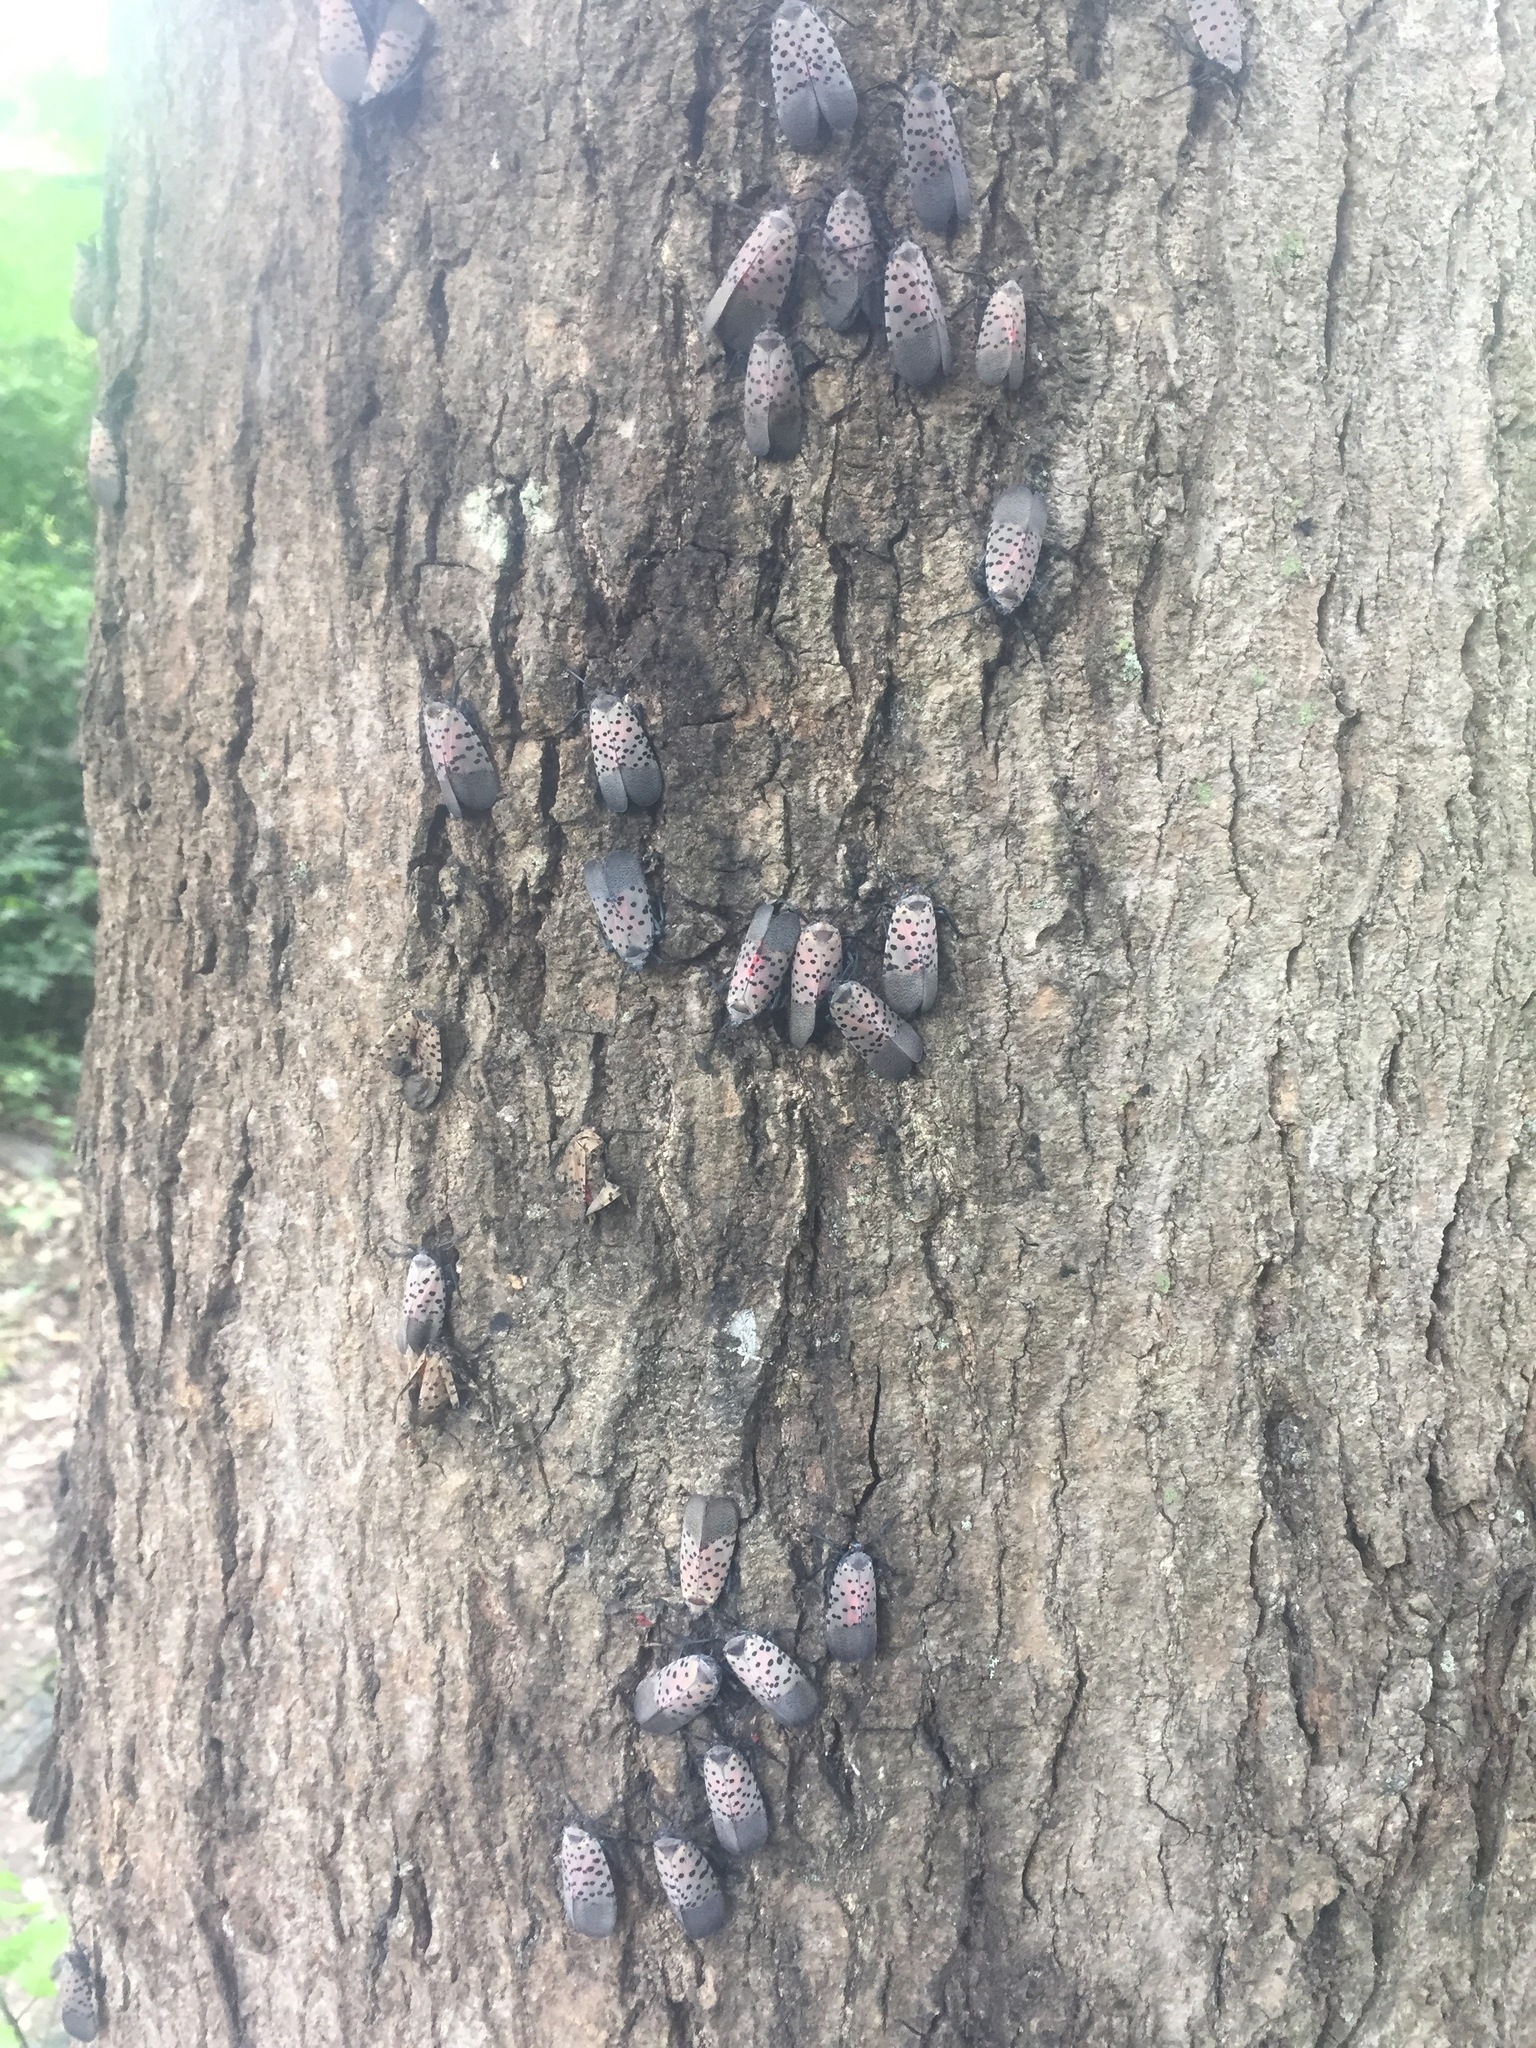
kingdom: Animalia
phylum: Arthropoda
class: Insecta
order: Hemiptera
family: Fulgoridae
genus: Lycorma
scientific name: Lycorma delicatula
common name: Spotted lanternfly
